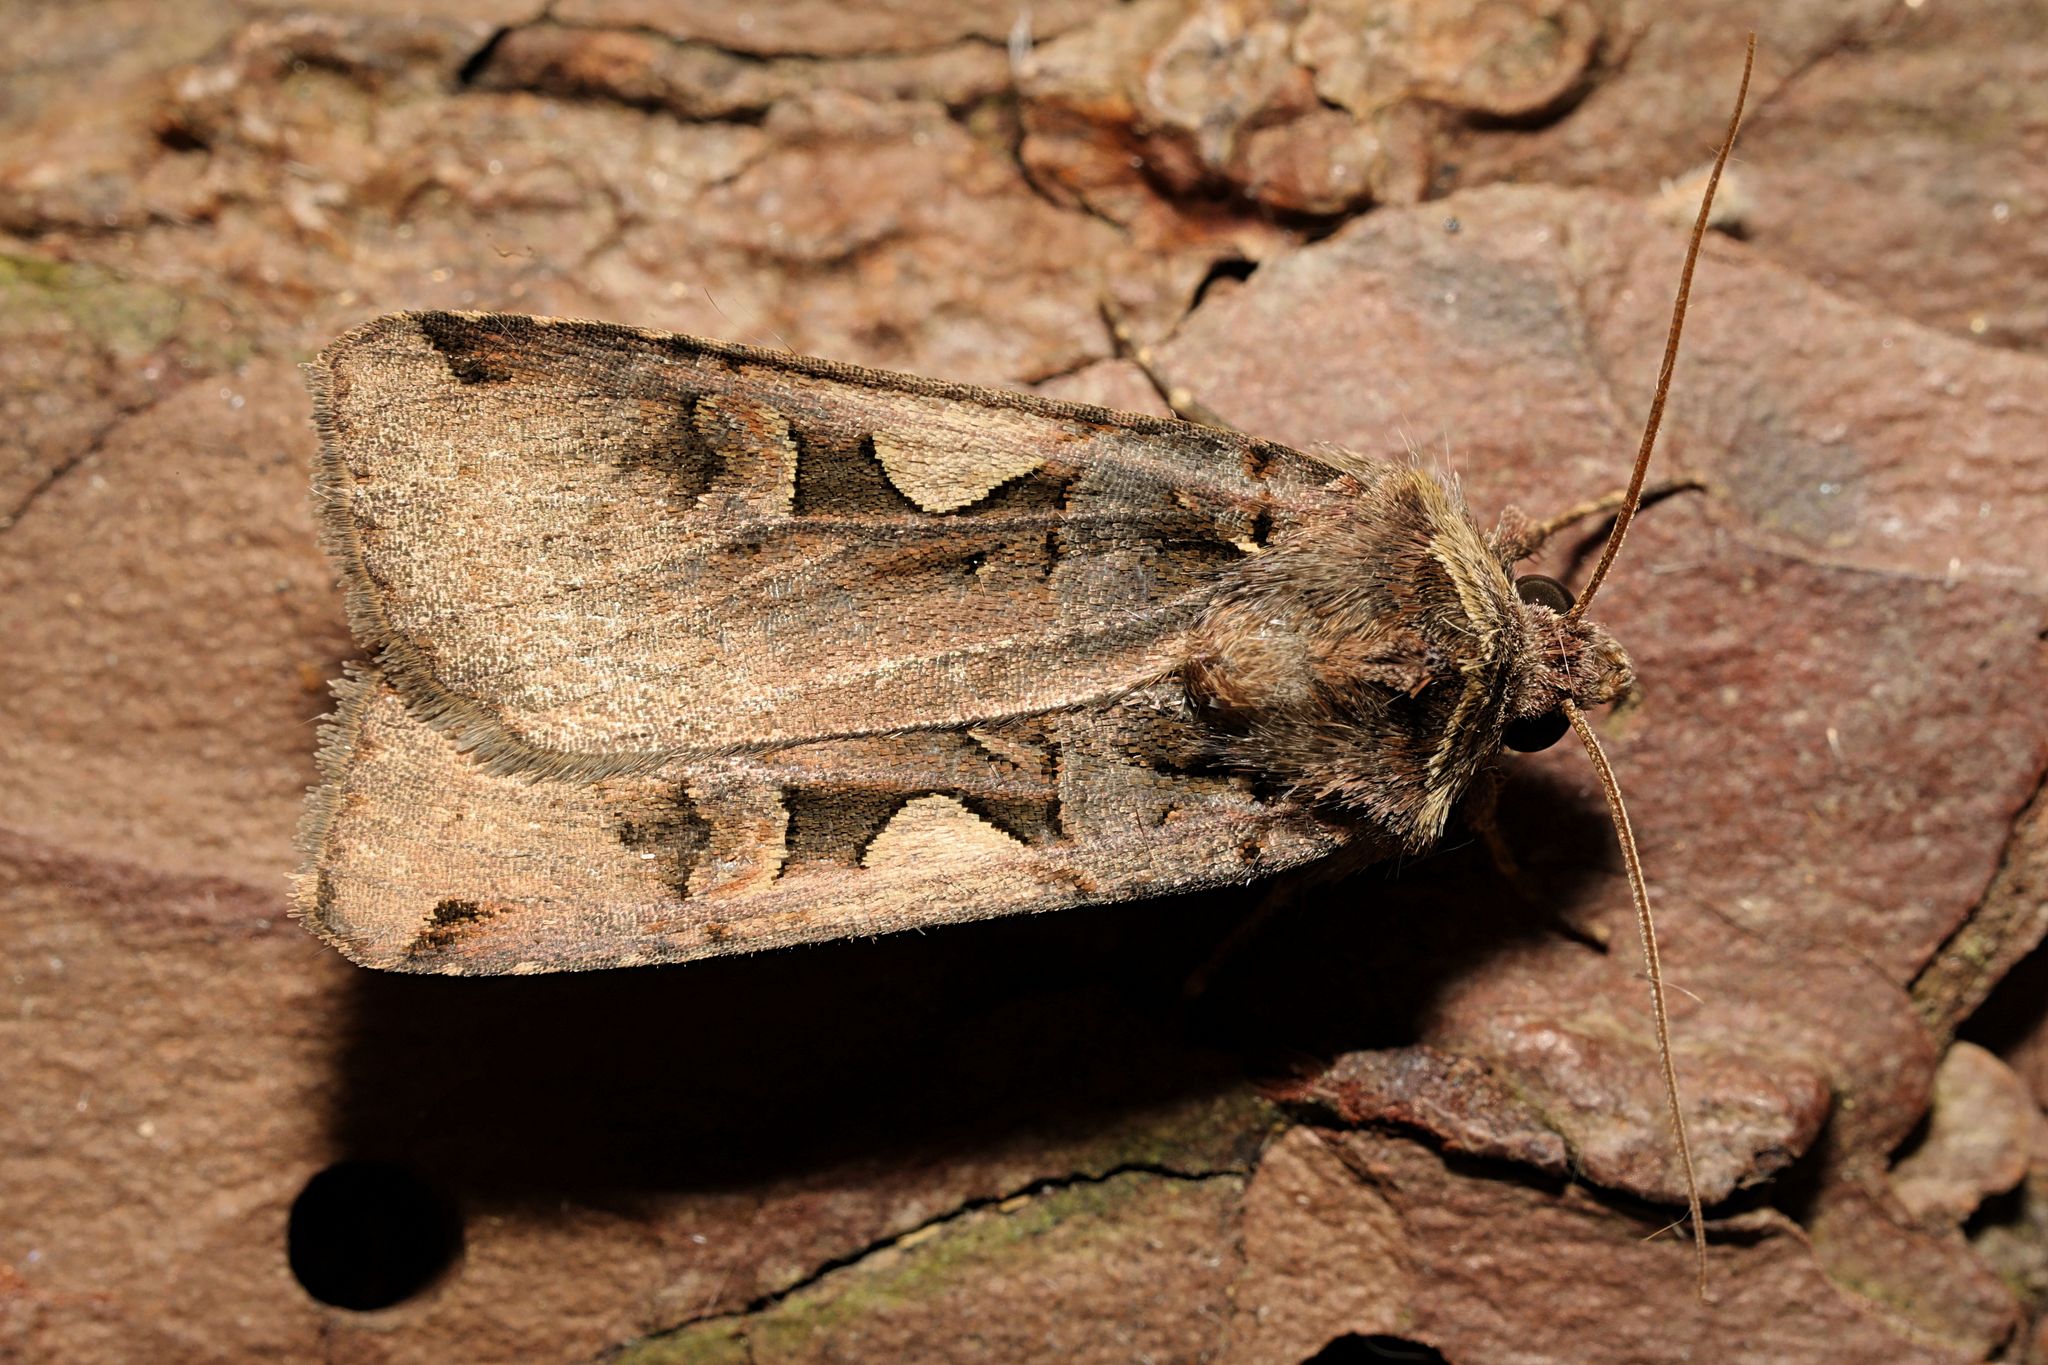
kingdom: Animalia
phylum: Arthropoda
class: Insecta
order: Lepidoptera
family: Noctuidae
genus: Xestia
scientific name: Xestia c-nigrum
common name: Setaceous hebrew character
